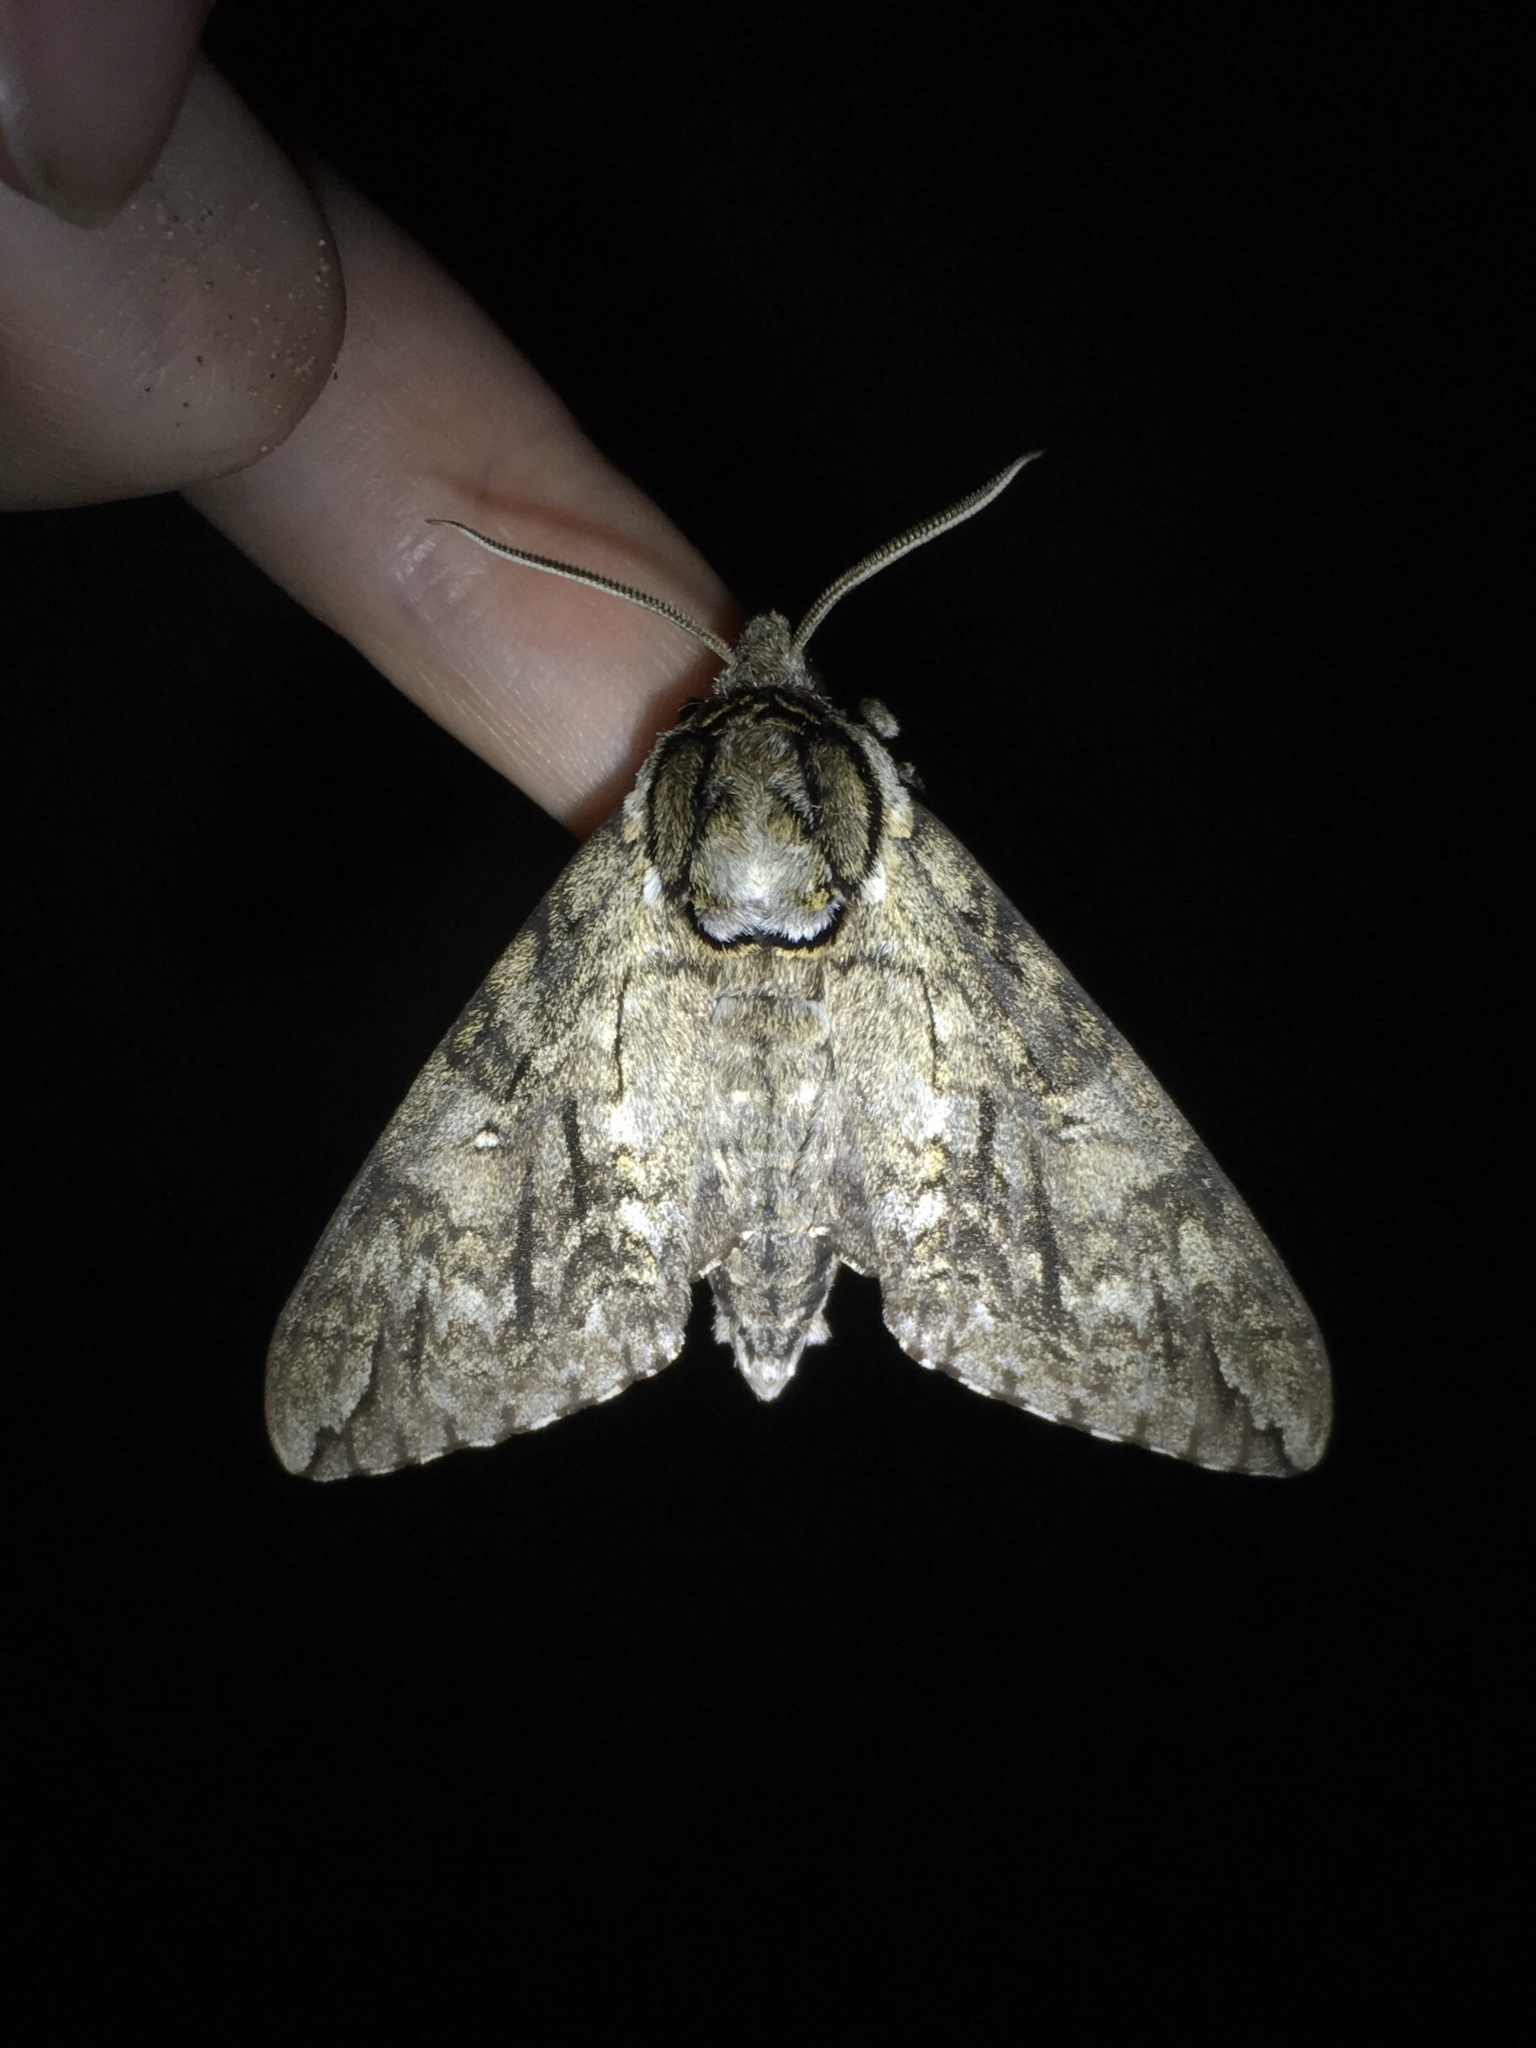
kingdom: Animalia
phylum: Arthropoda
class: Insecta
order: Lepidoptera
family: Sphingidae
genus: Ceratomia
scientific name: Ceratomia undulosa
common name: Waved sphinx
